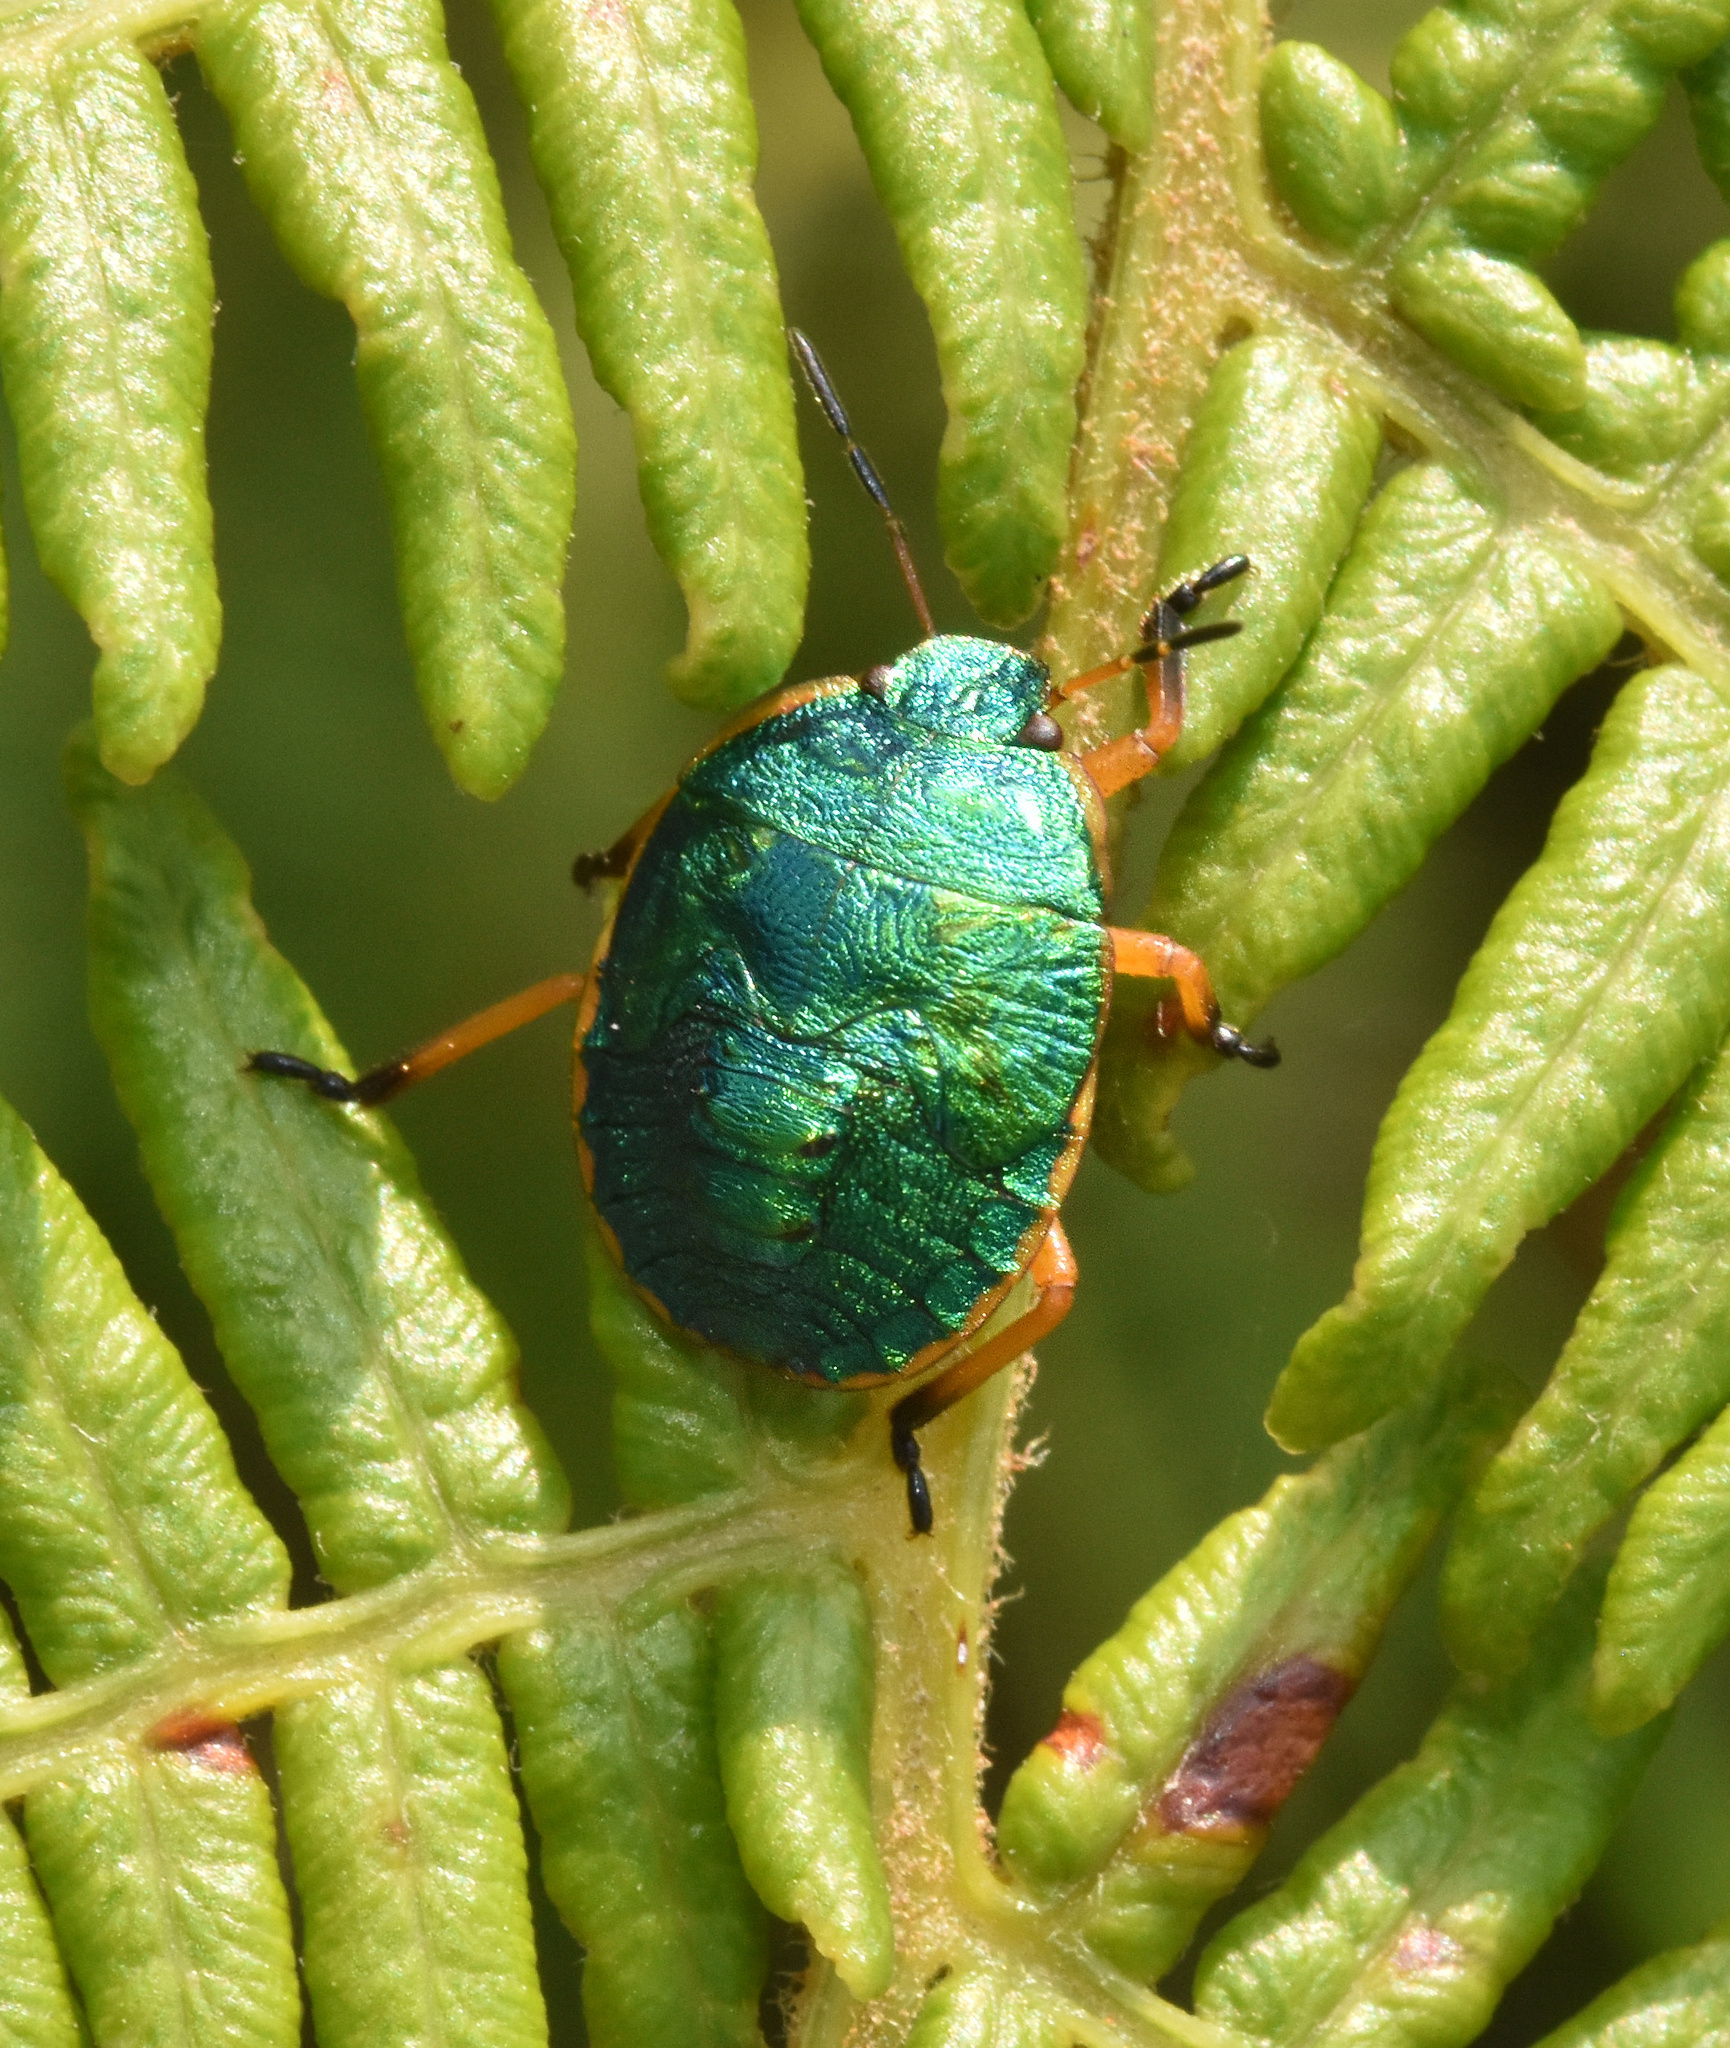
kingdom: Animalia
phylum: Arthropoda
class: Insecta
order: Hemiptera
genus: Erachtheus
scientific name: Erachtheus
